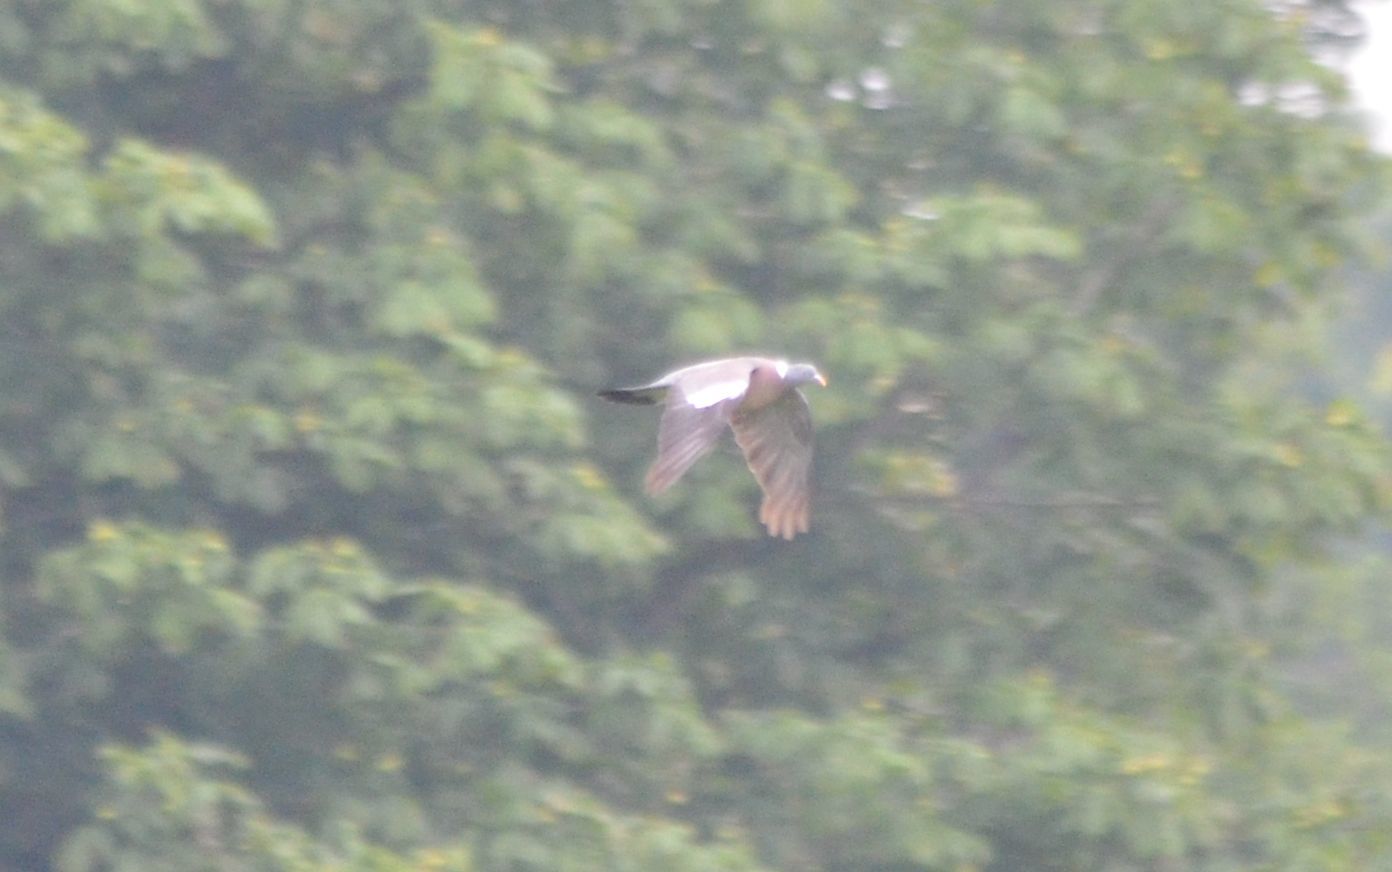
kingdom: Animalia
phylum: Chordata
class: Aves
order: Columbiformes
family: Columbidae
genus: Columba
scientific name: Columba palumbus
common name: Common wood pigeon
